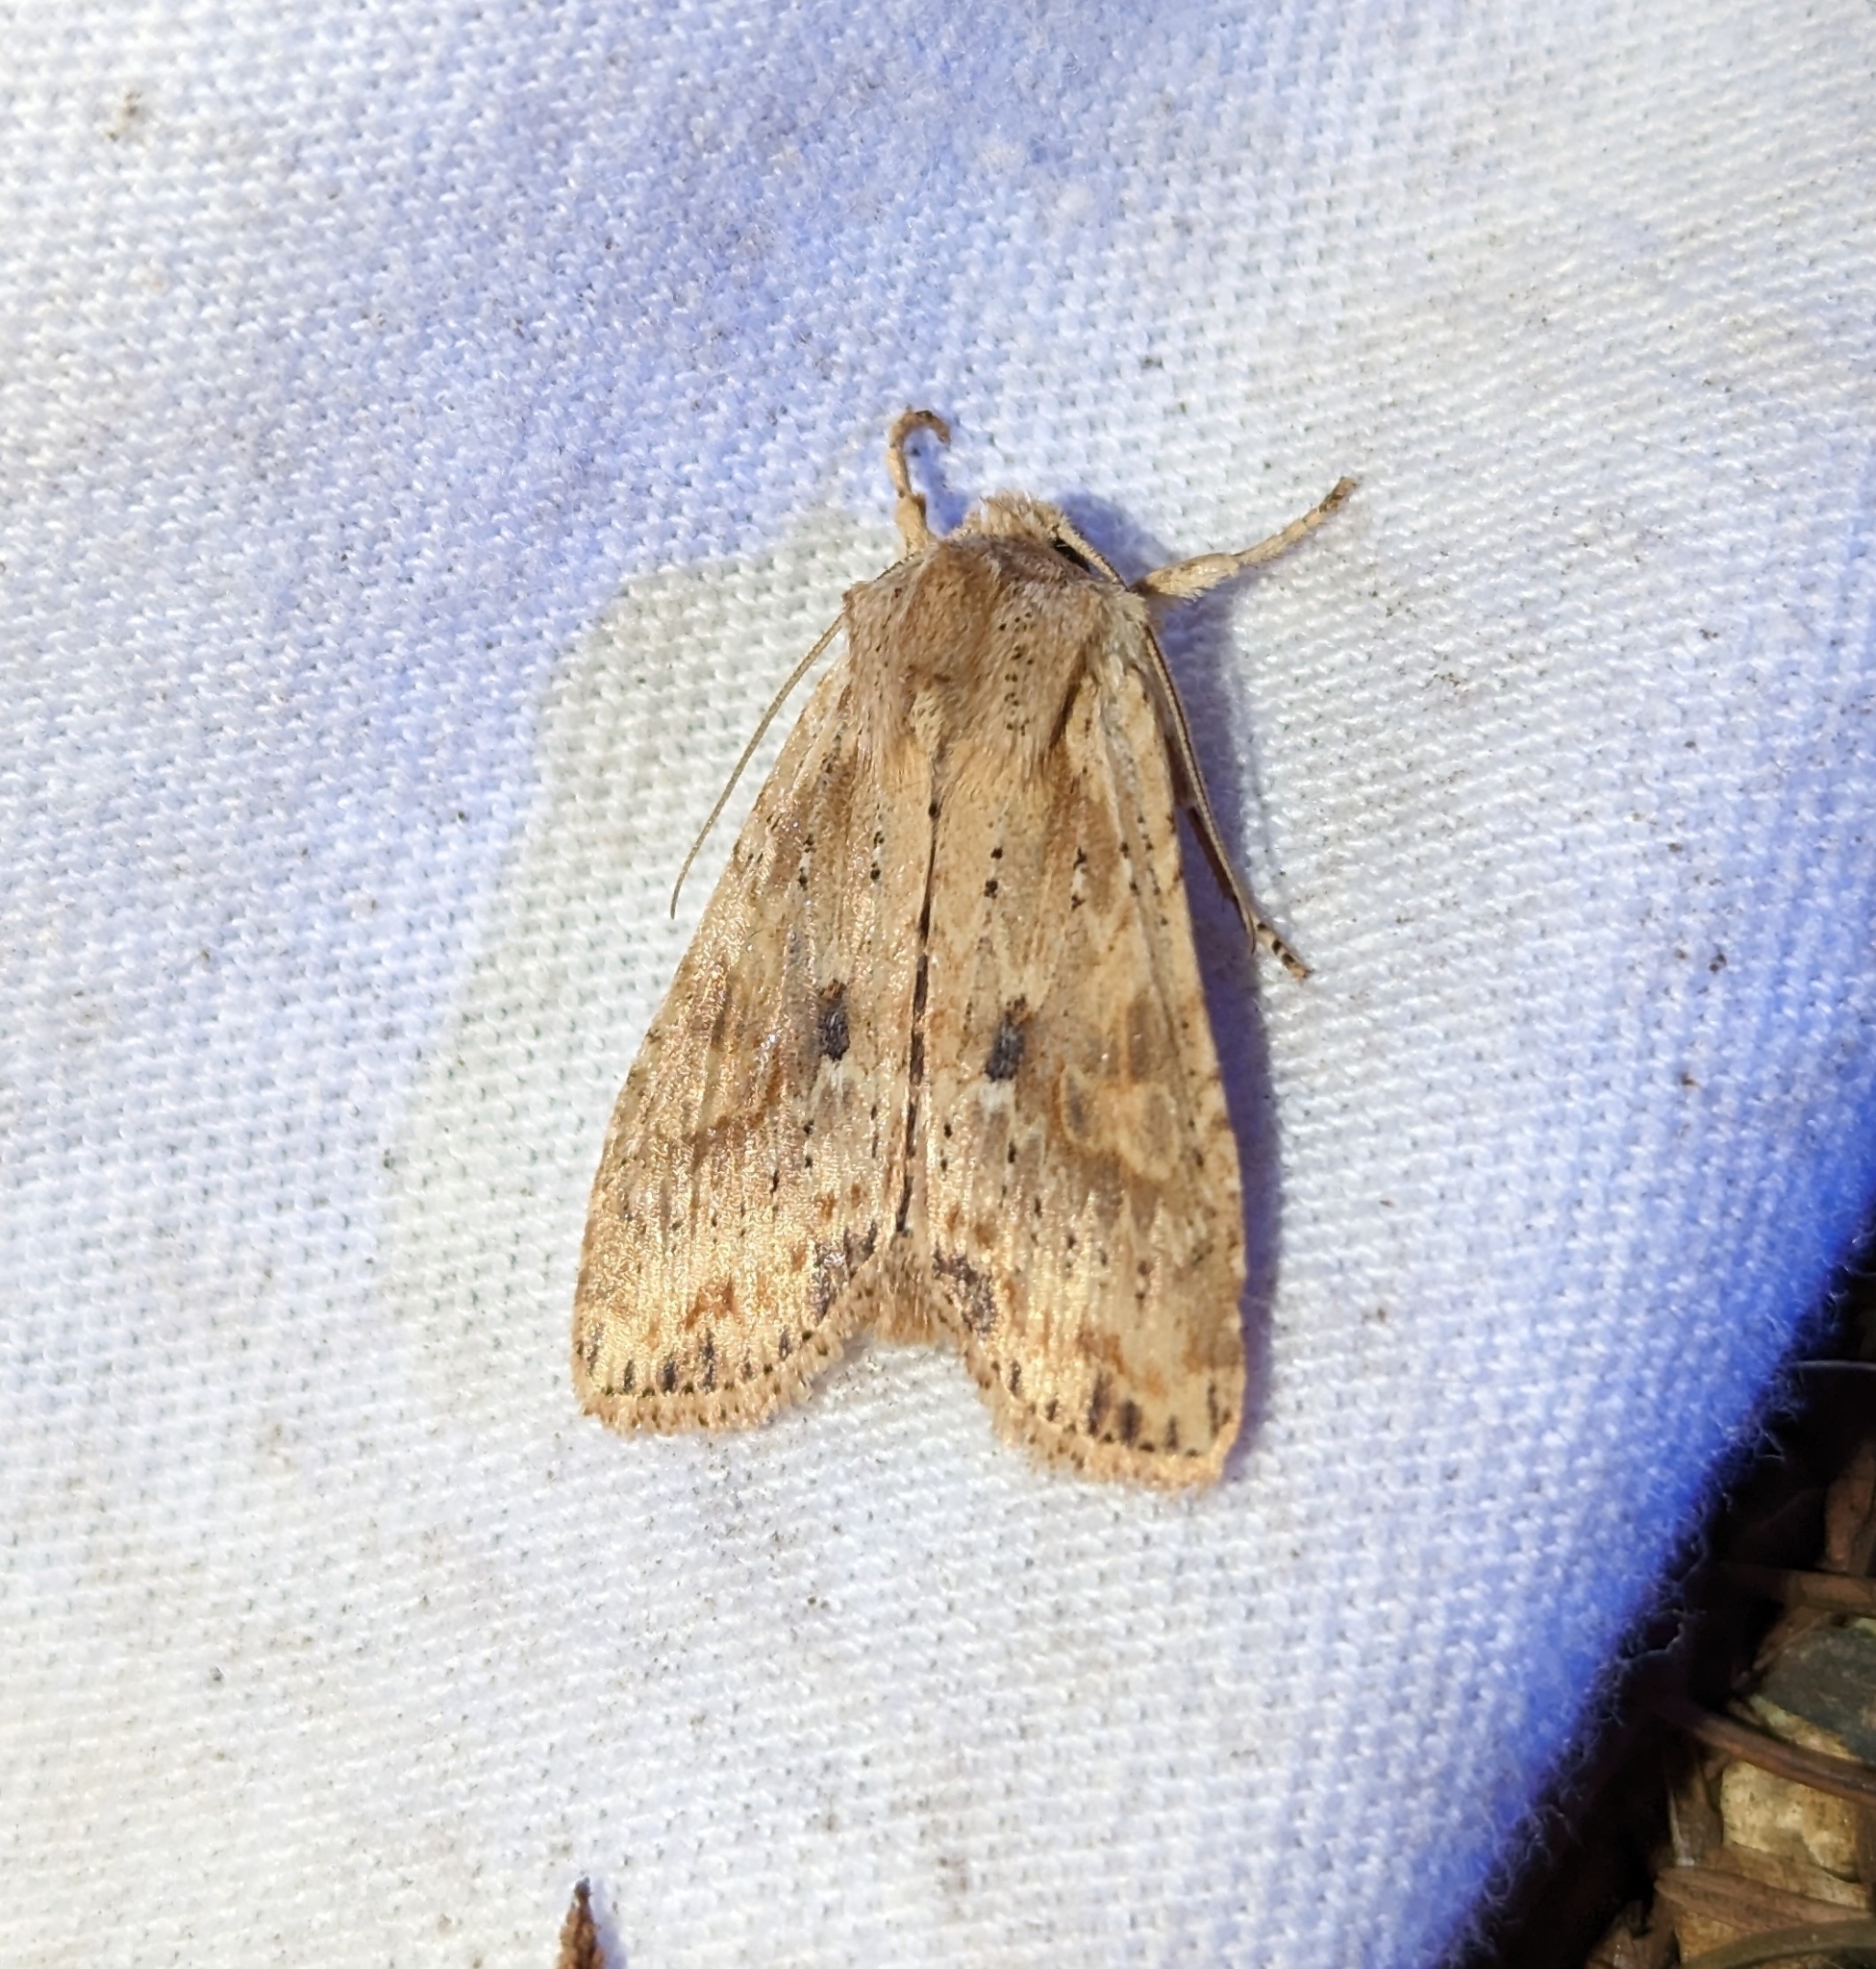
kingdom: Animalia
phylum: Arthropoda
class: Insecta
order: Lepidoptera
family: Noctuidae
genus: Lithophane
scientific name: Lithophane innominata
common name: Nameless pinion moth
